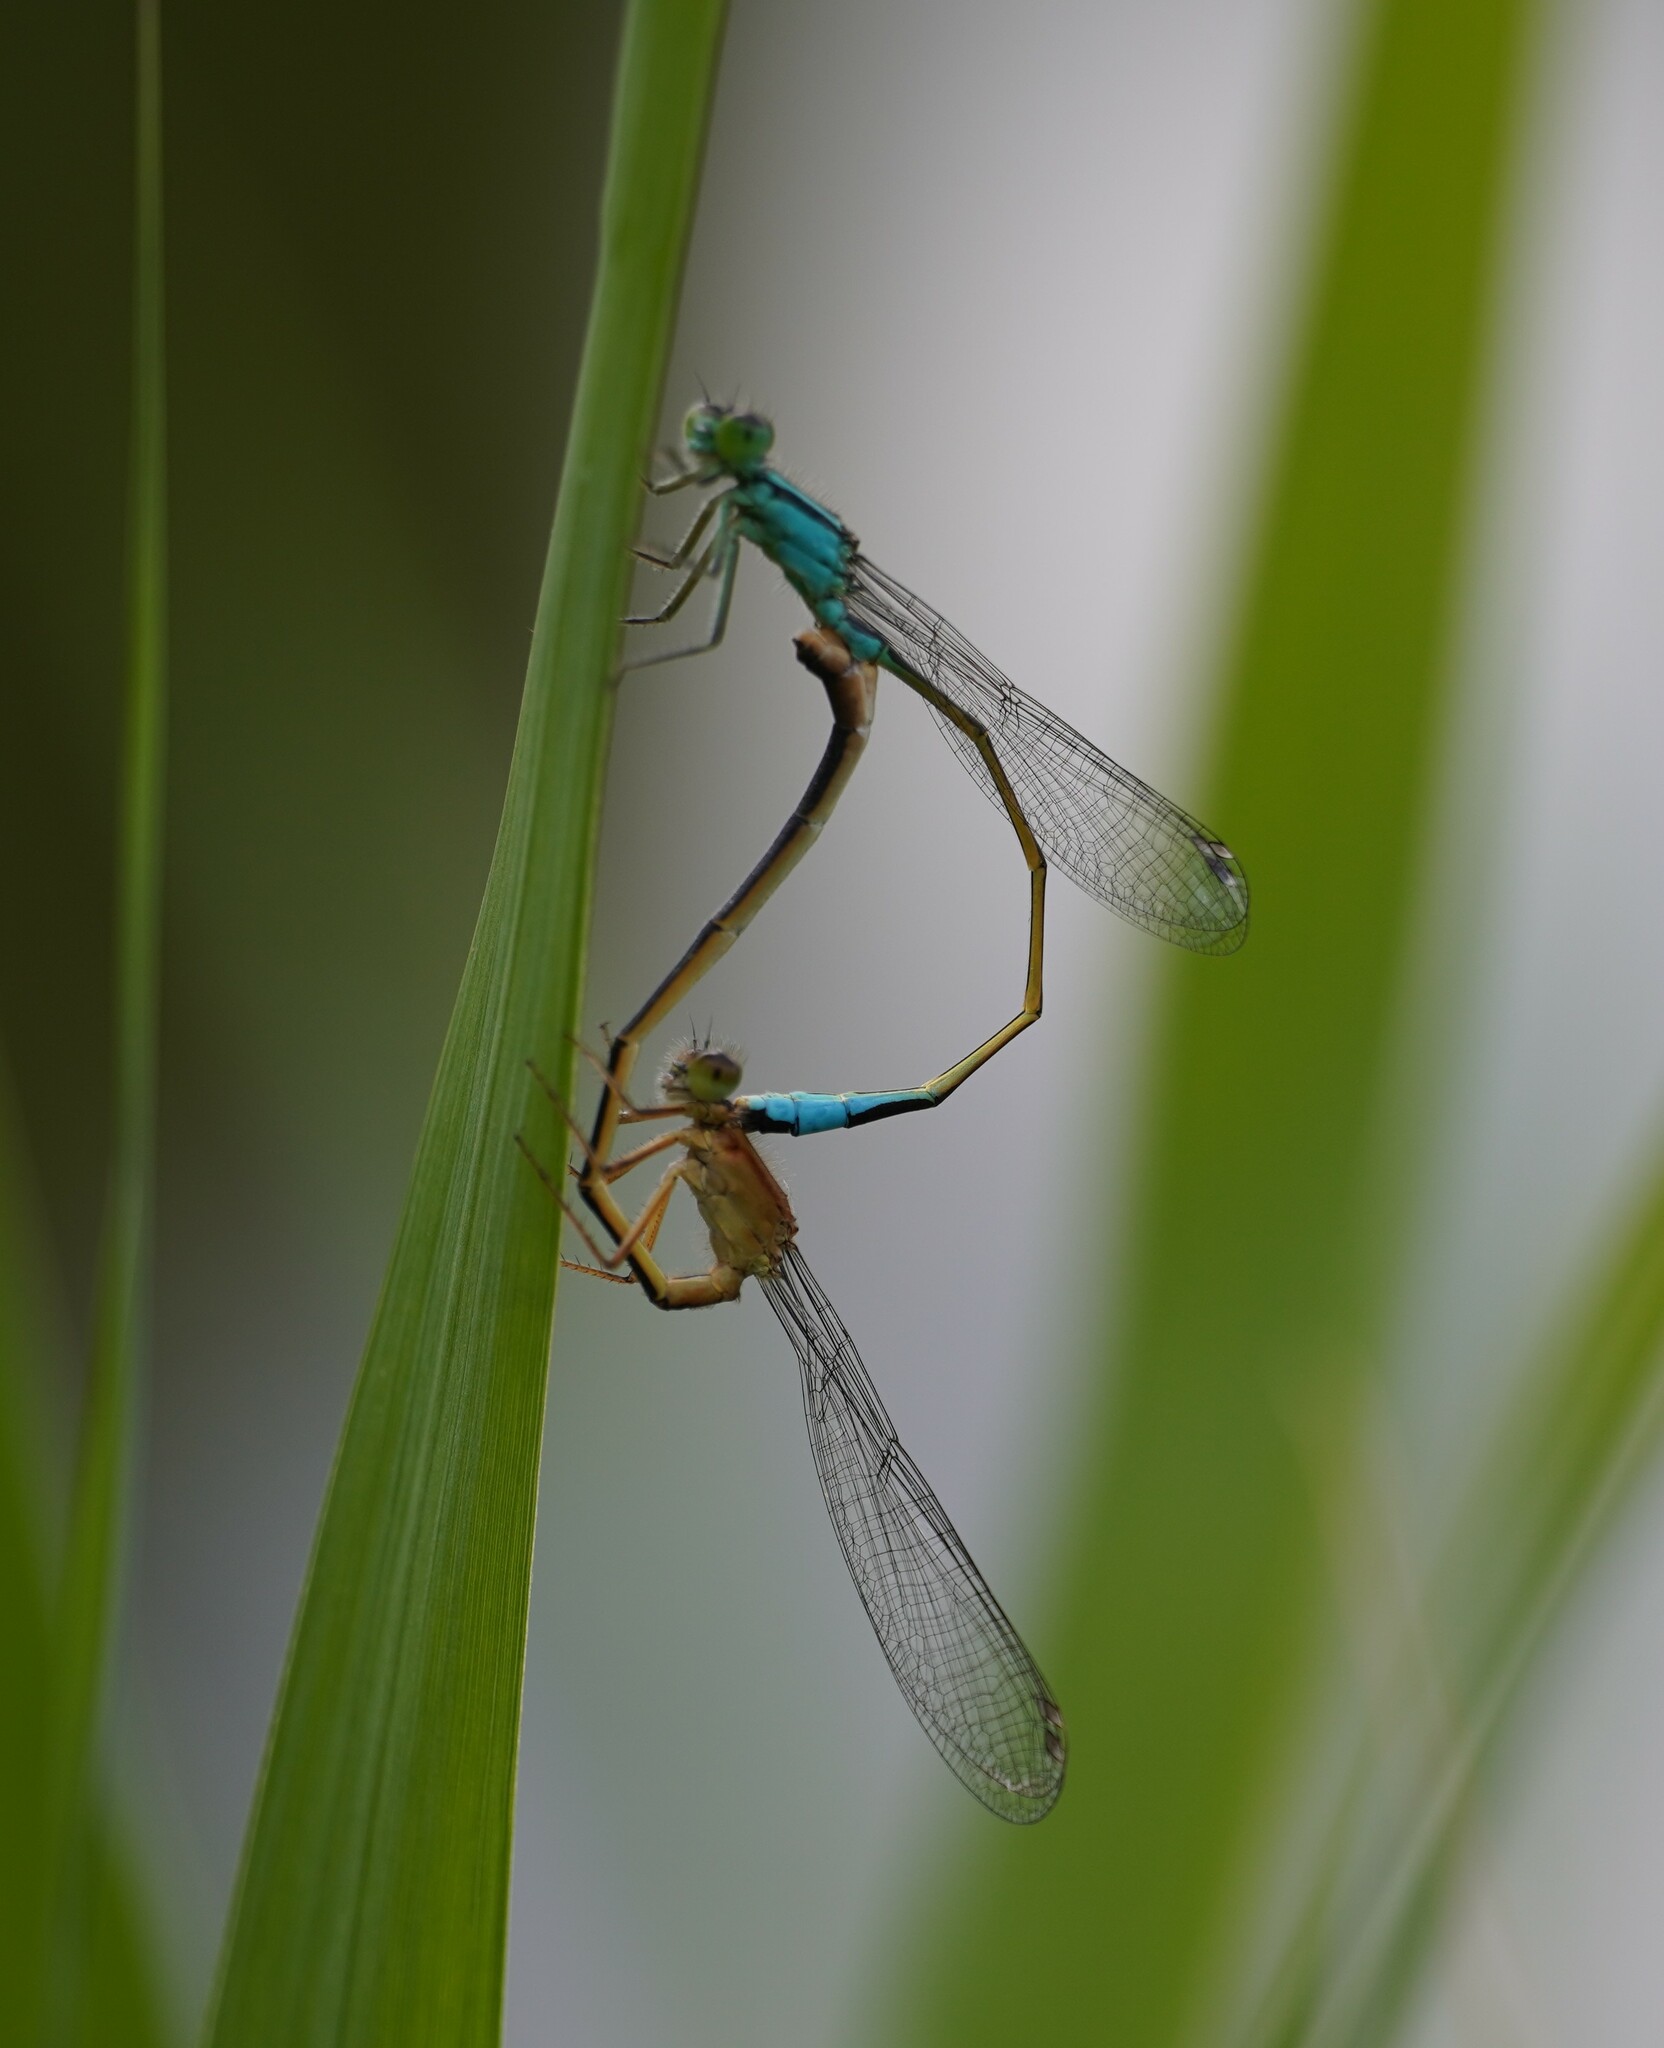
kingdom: Animalia
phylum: Arthropoda
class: Insecta
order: Odonata
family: Coenagrionidae
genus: Ischnura
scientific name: Ischnura elegans
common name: Blue-tailed damselfly
